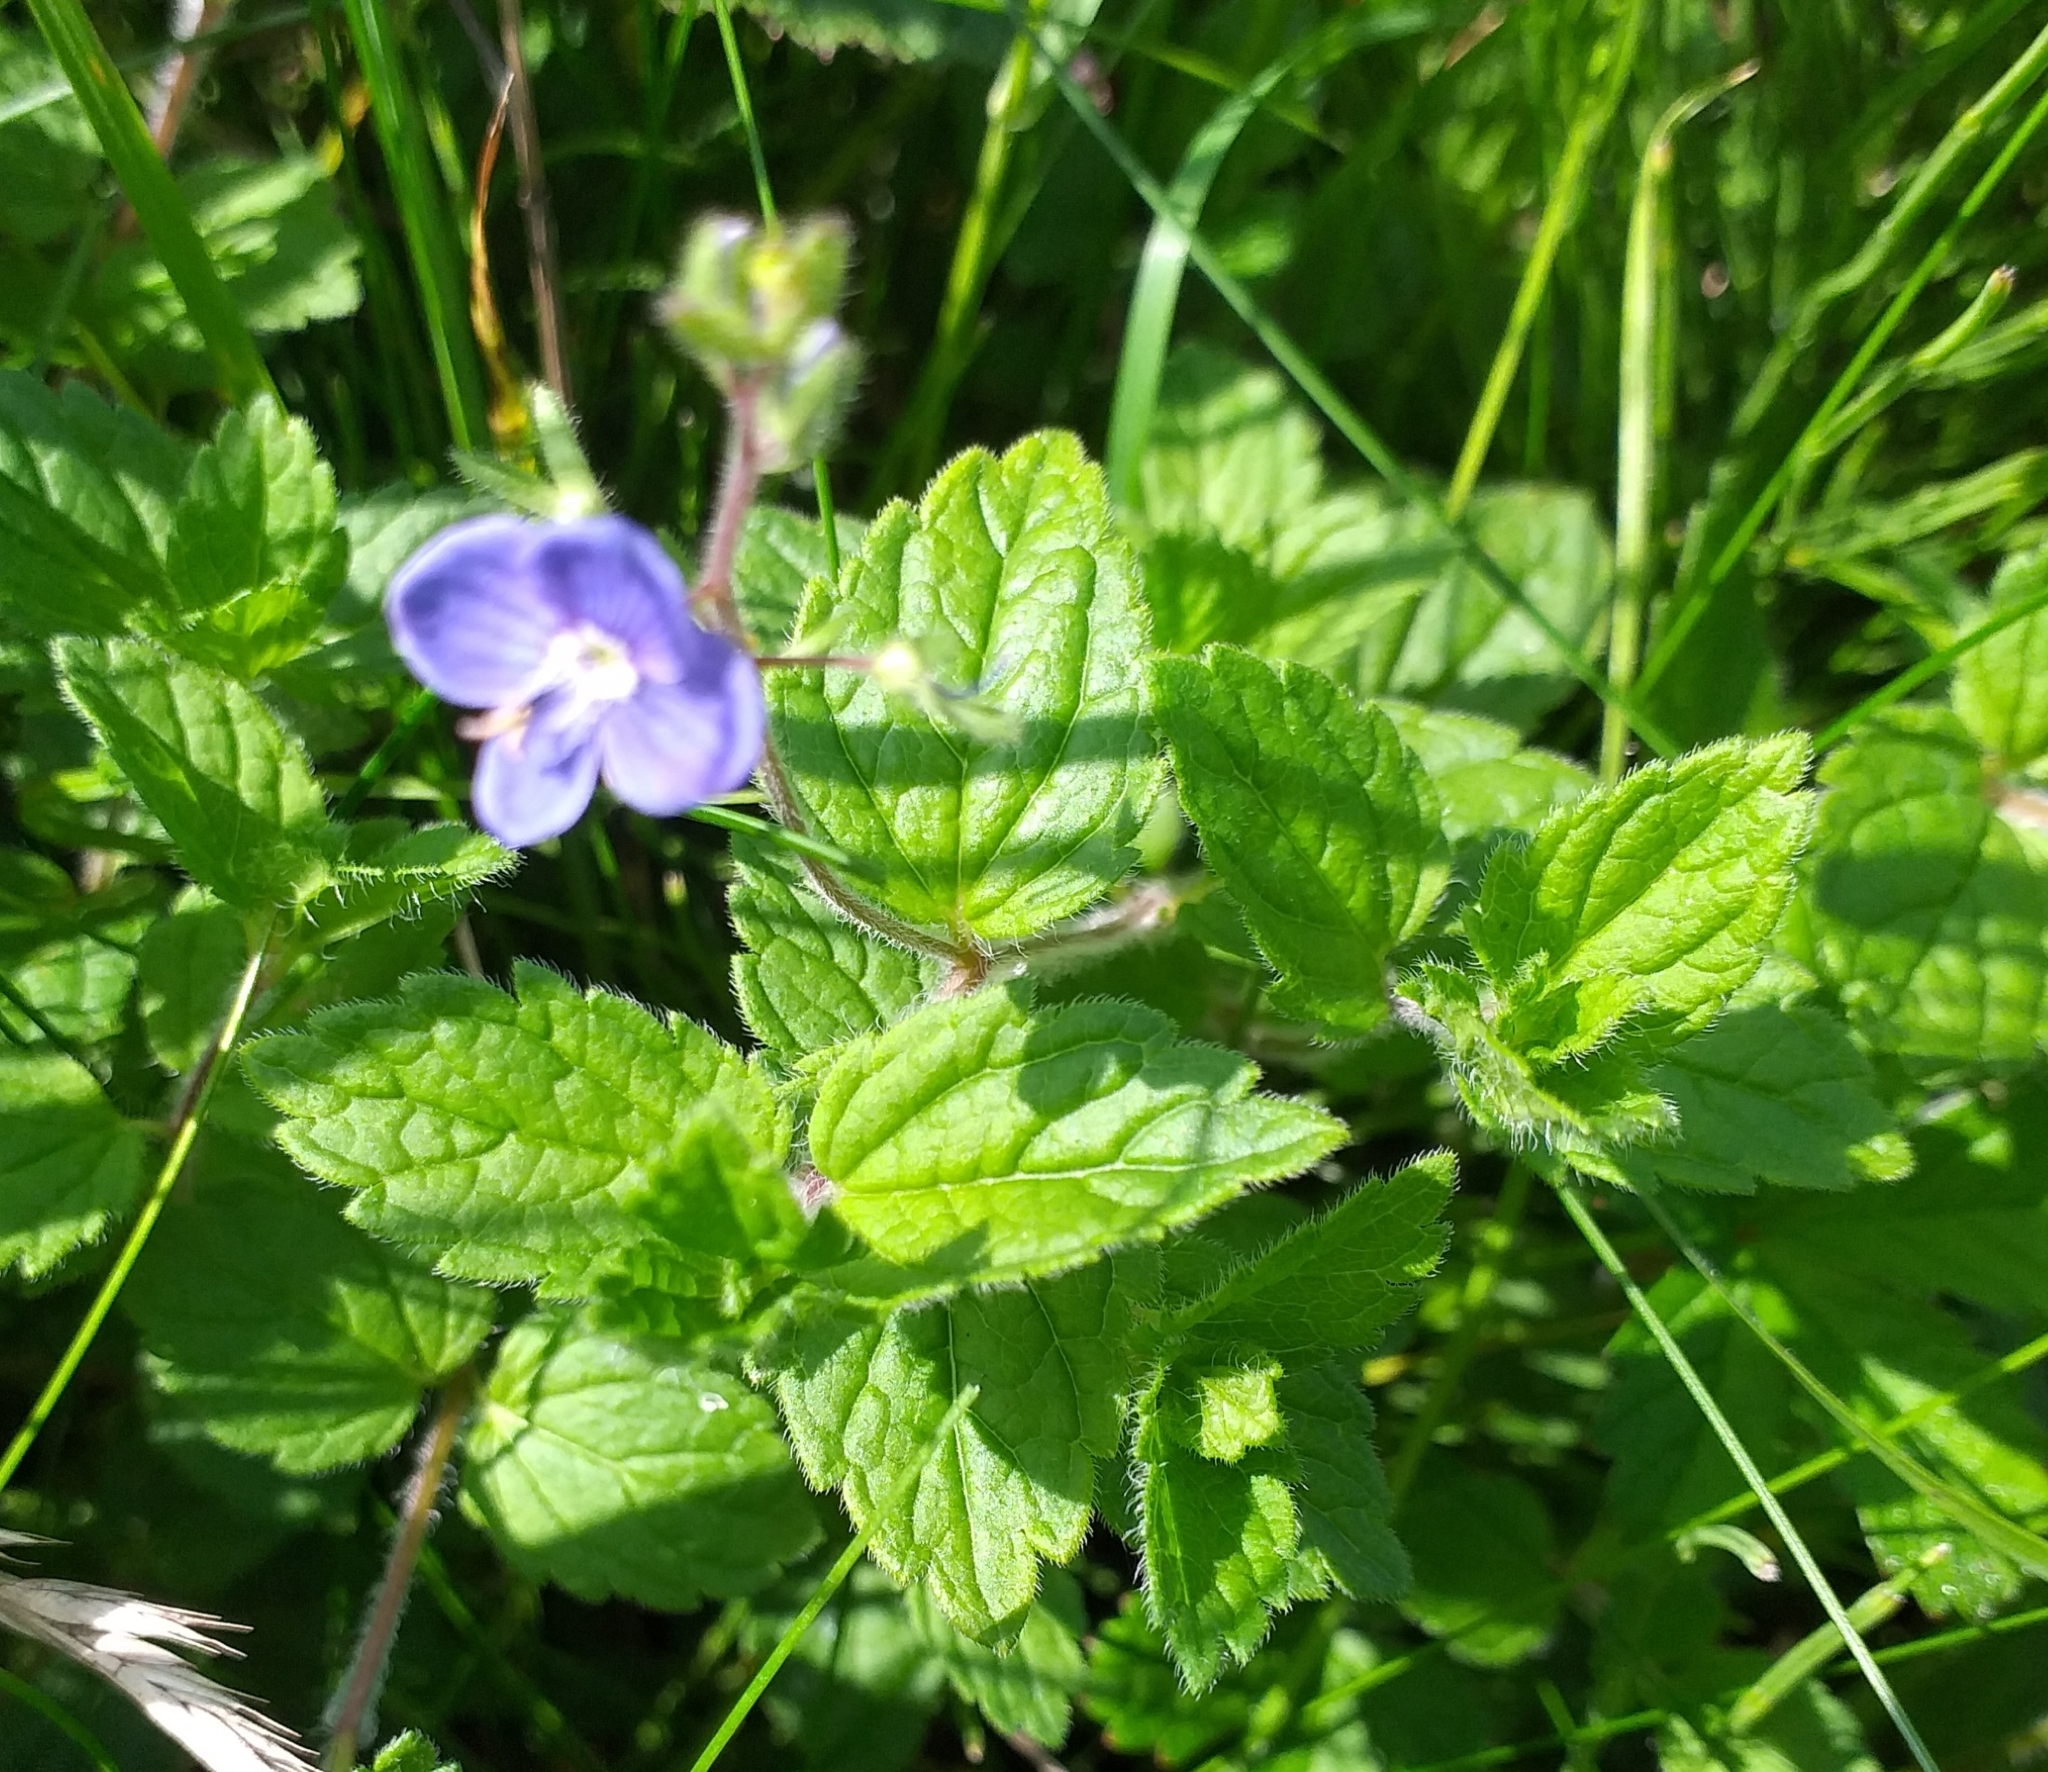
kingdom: Plantae
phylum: Tracheophyta
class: Magnoliopsida
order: Lamiales
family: Plantaginaceae
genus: Veronica
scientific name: Veronica chamaedrys
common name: Germander speedwell
